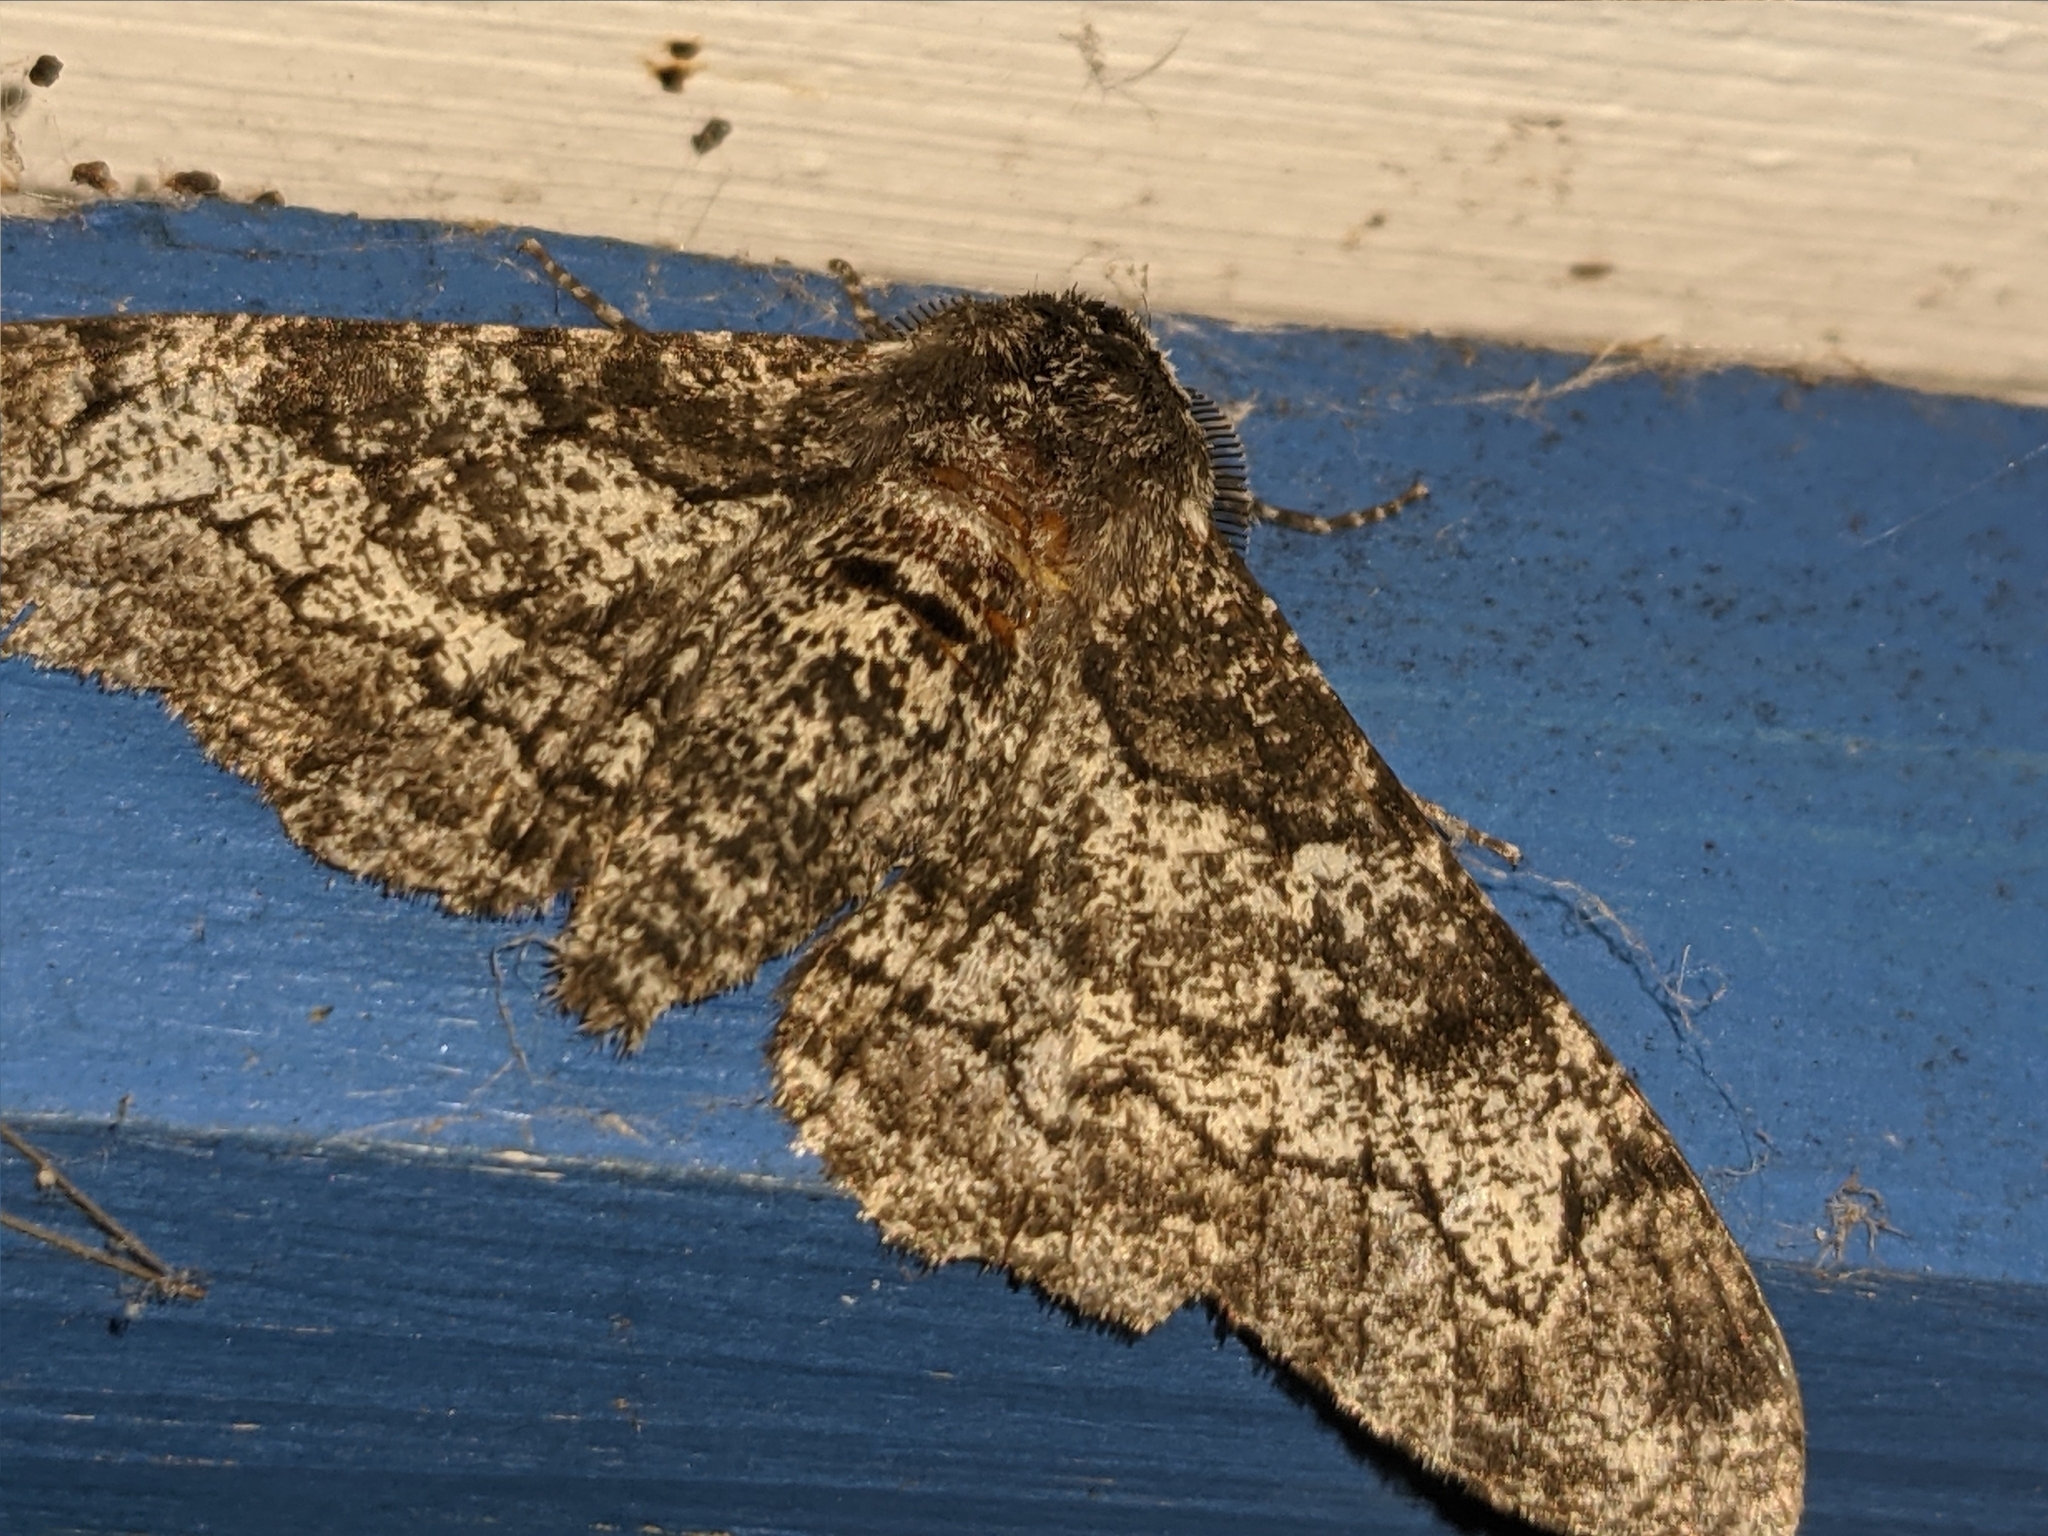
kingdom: Animalia
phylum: Arthropoda
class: Insecta
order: Lepidoptera
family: Geometridae
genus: Biston
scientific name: Biston betularia
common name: Peppered moth
